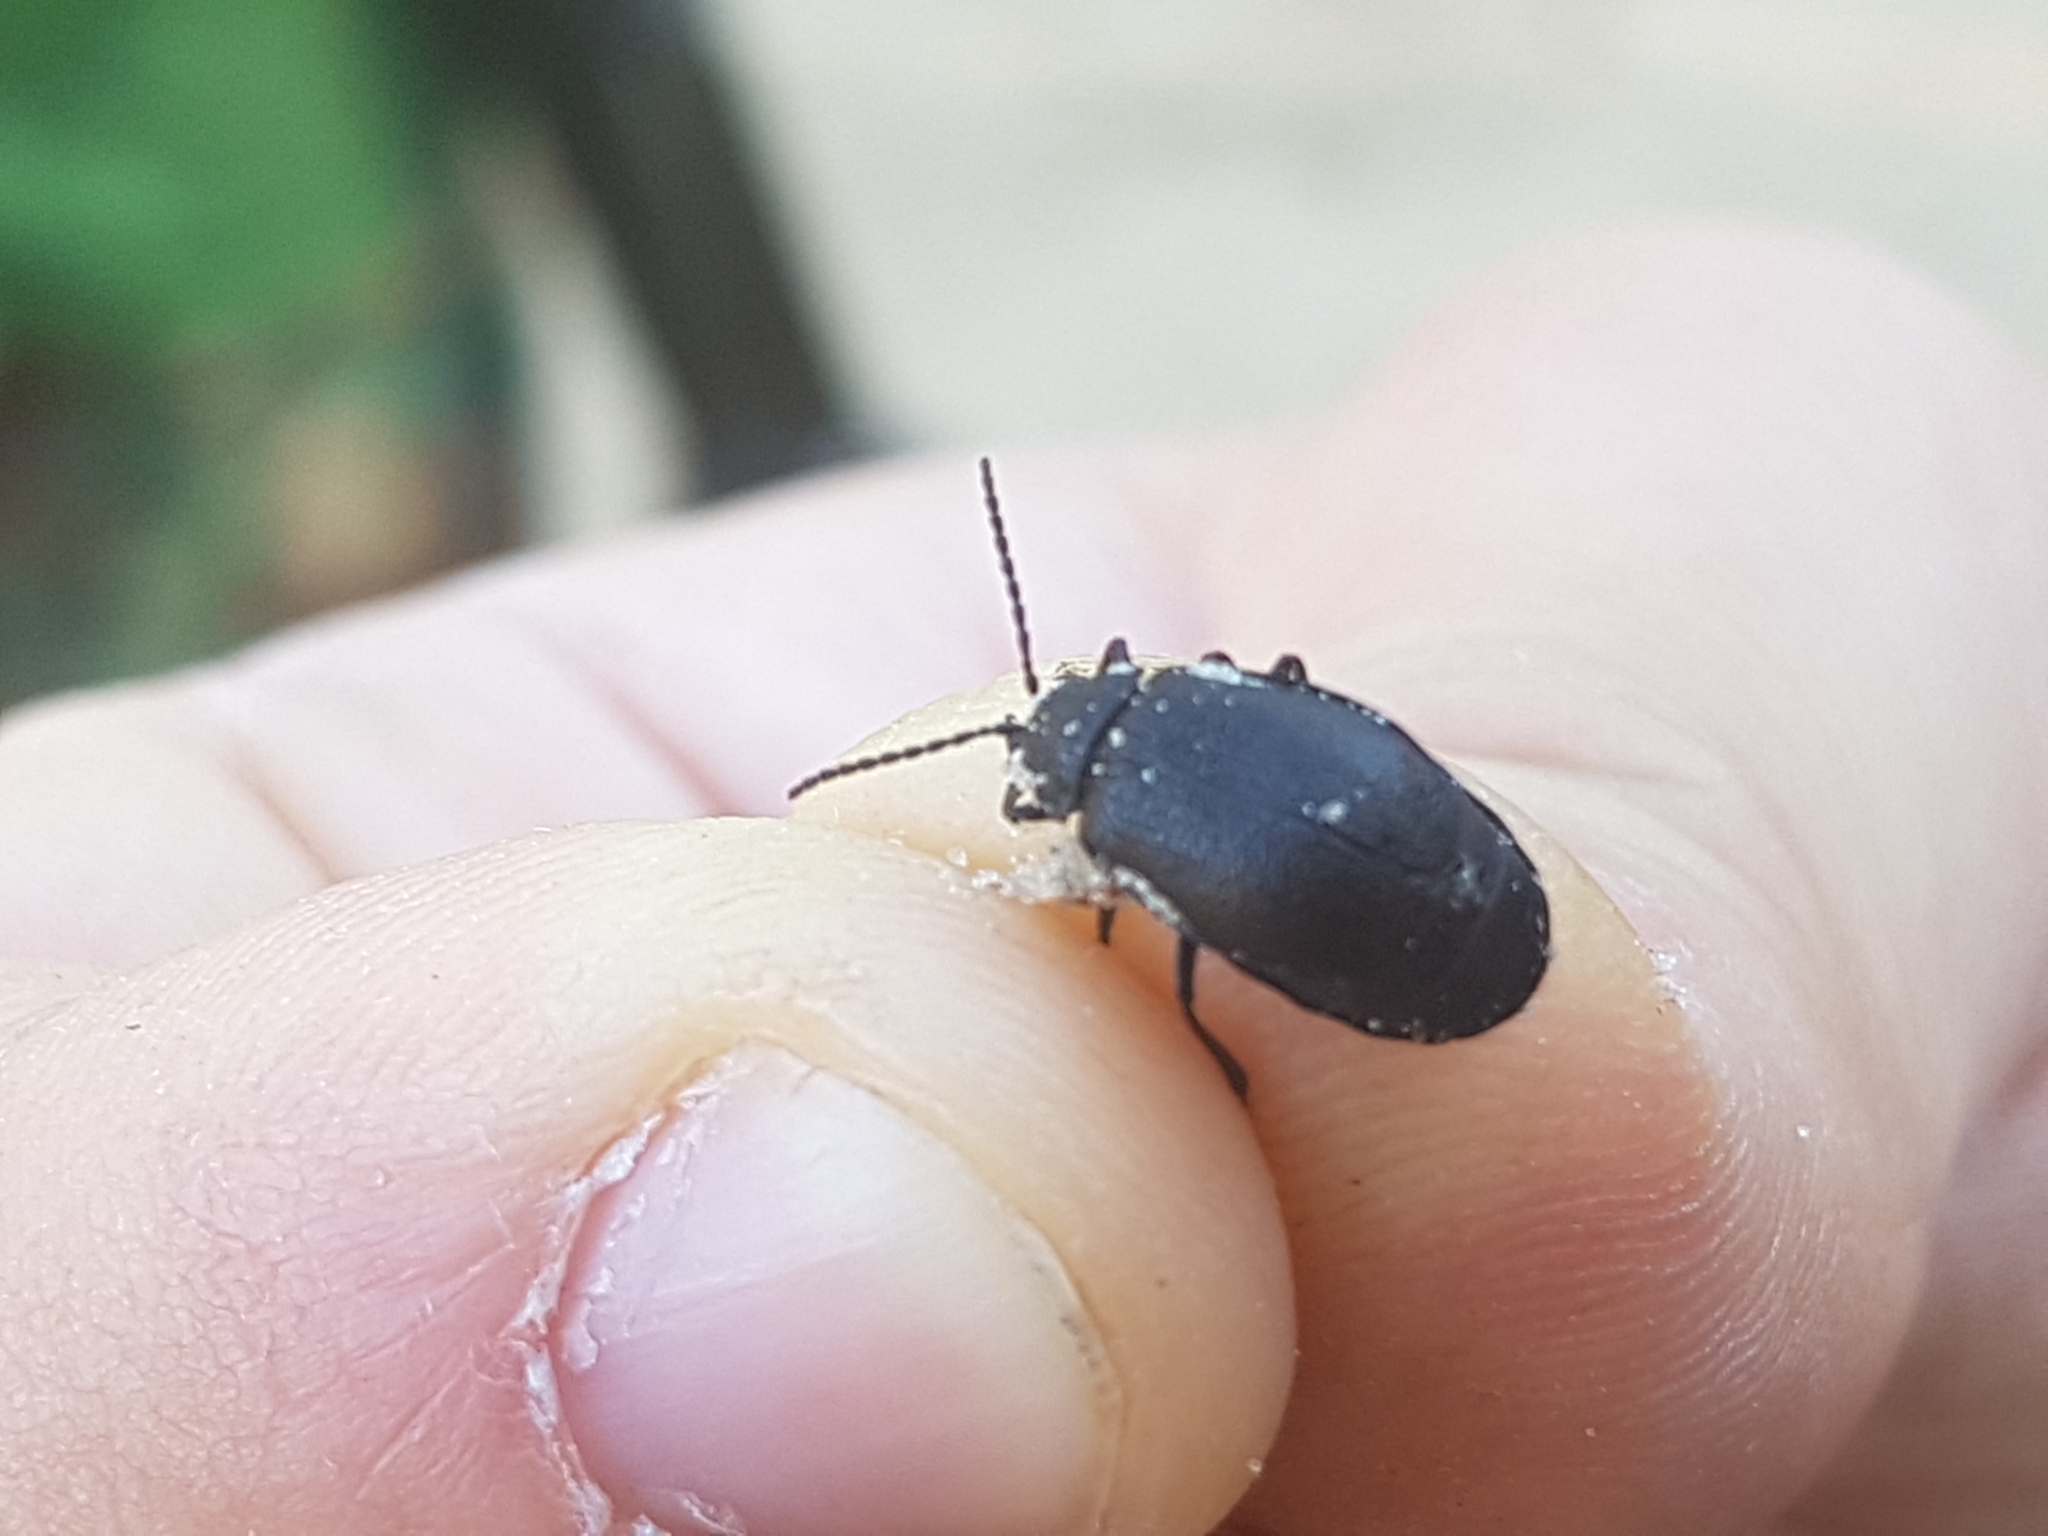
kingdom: Animalia
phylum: Arthropoda
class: Insecta
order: Coleoptera
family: Chrysomelidae
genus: Galeruca
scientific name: Galeruca tanaceti
